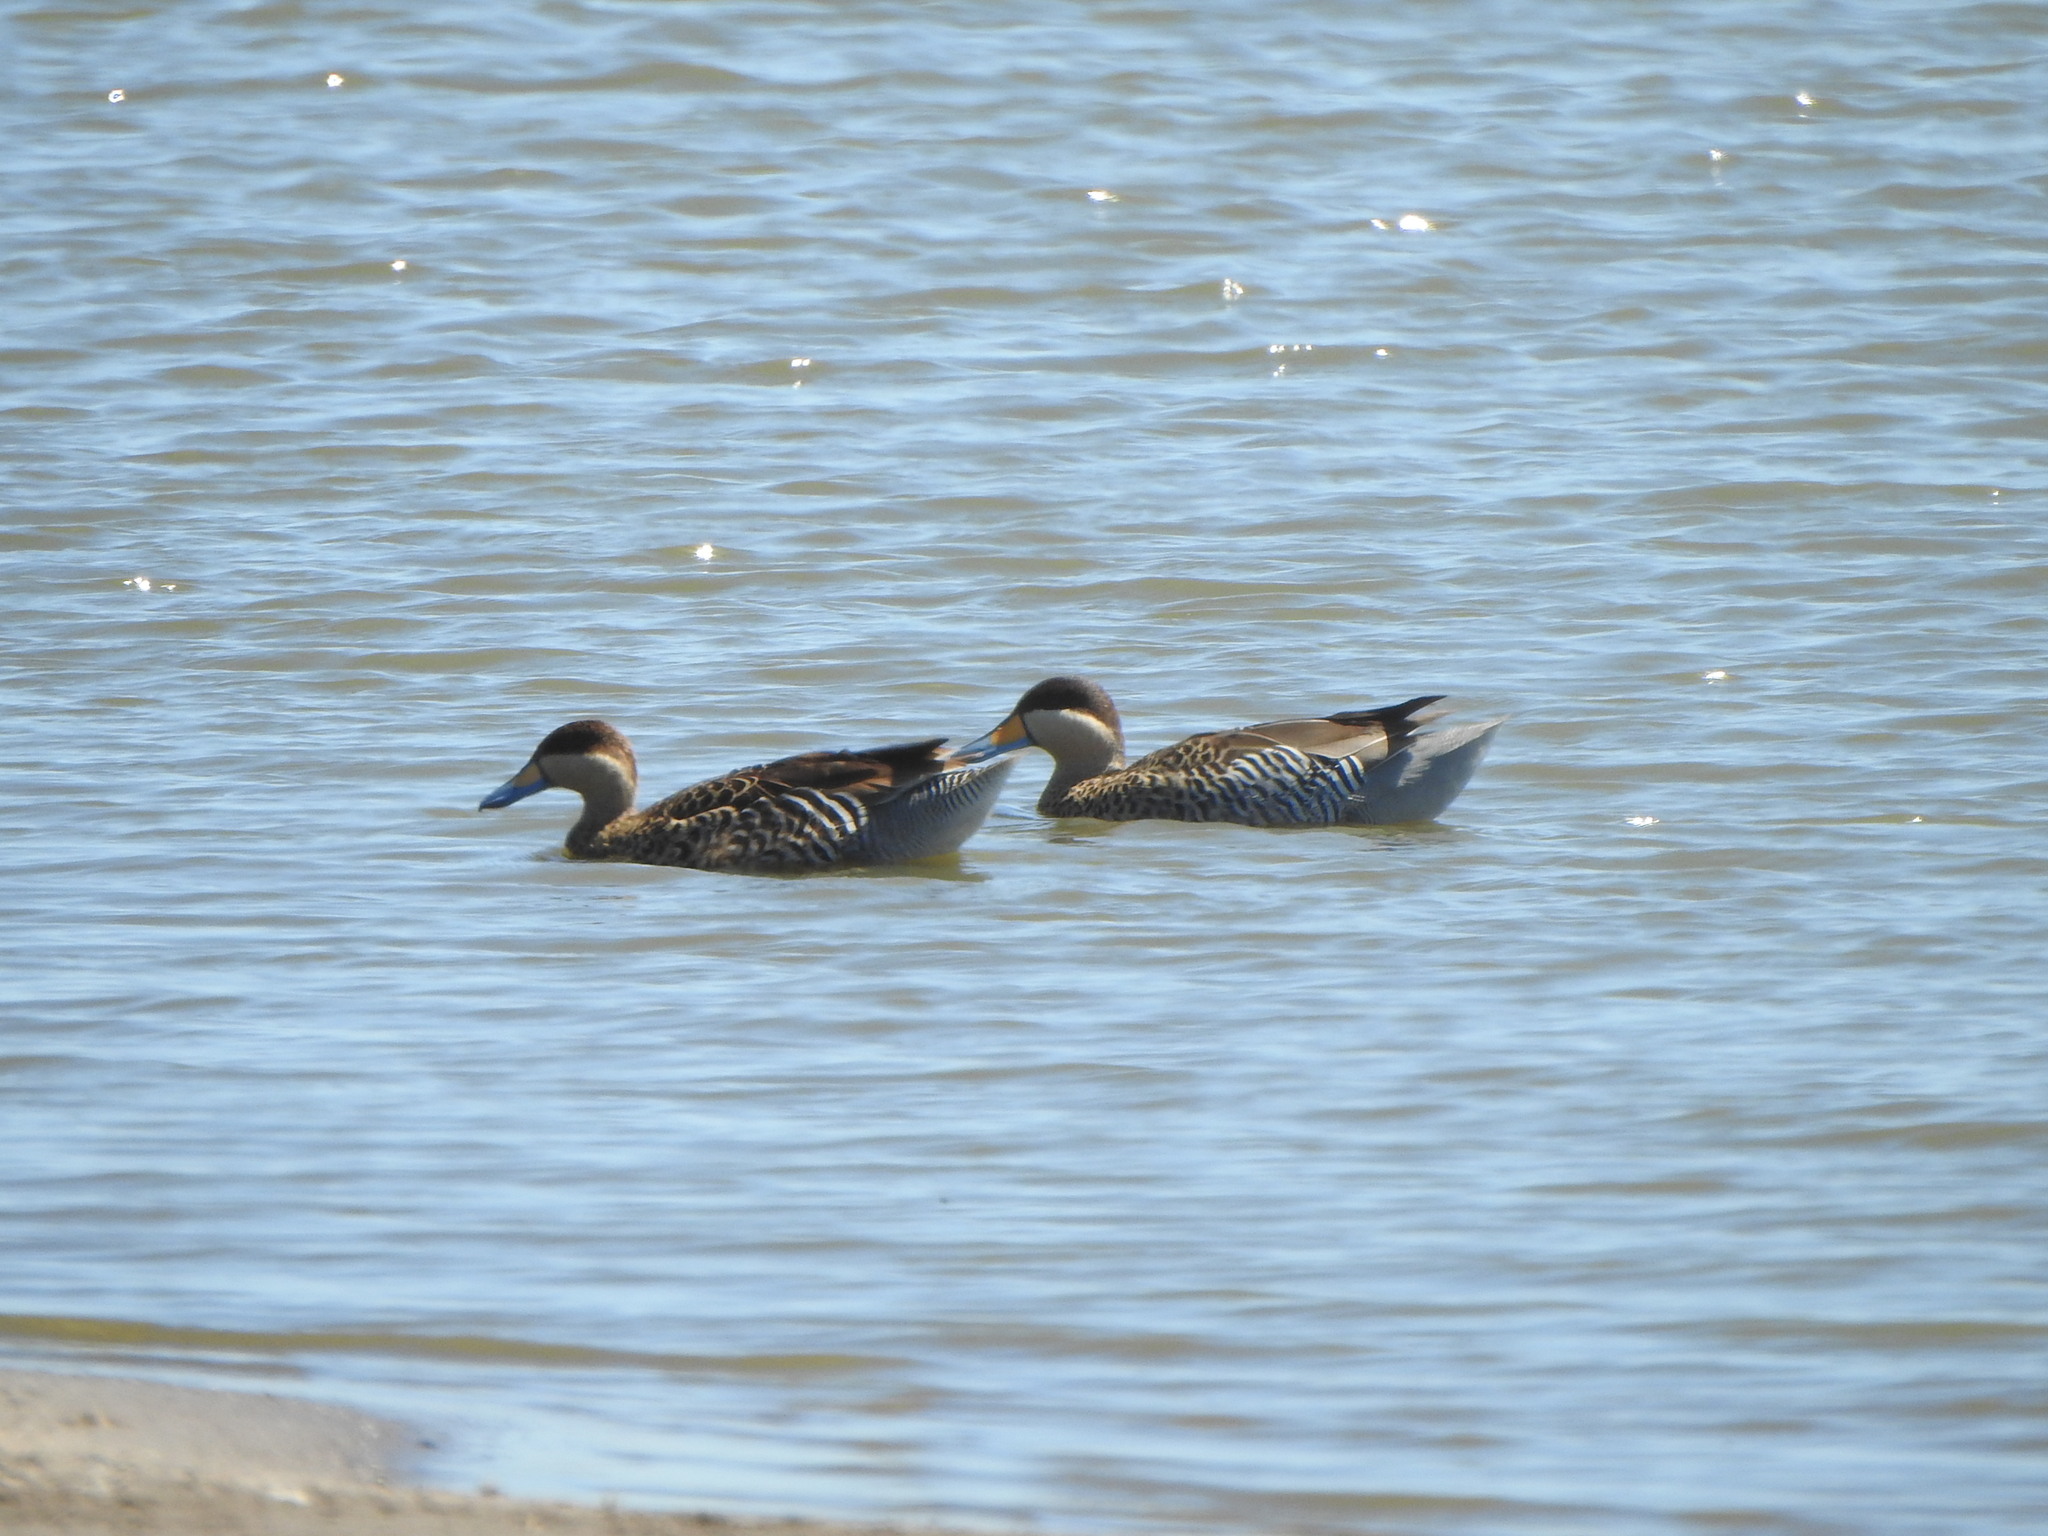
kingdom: Animalia
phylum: Chordata
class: Aves
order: Anseriformes
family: Anatidae
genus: Spatula
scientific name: Spatula versicolor
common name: Silver teal
